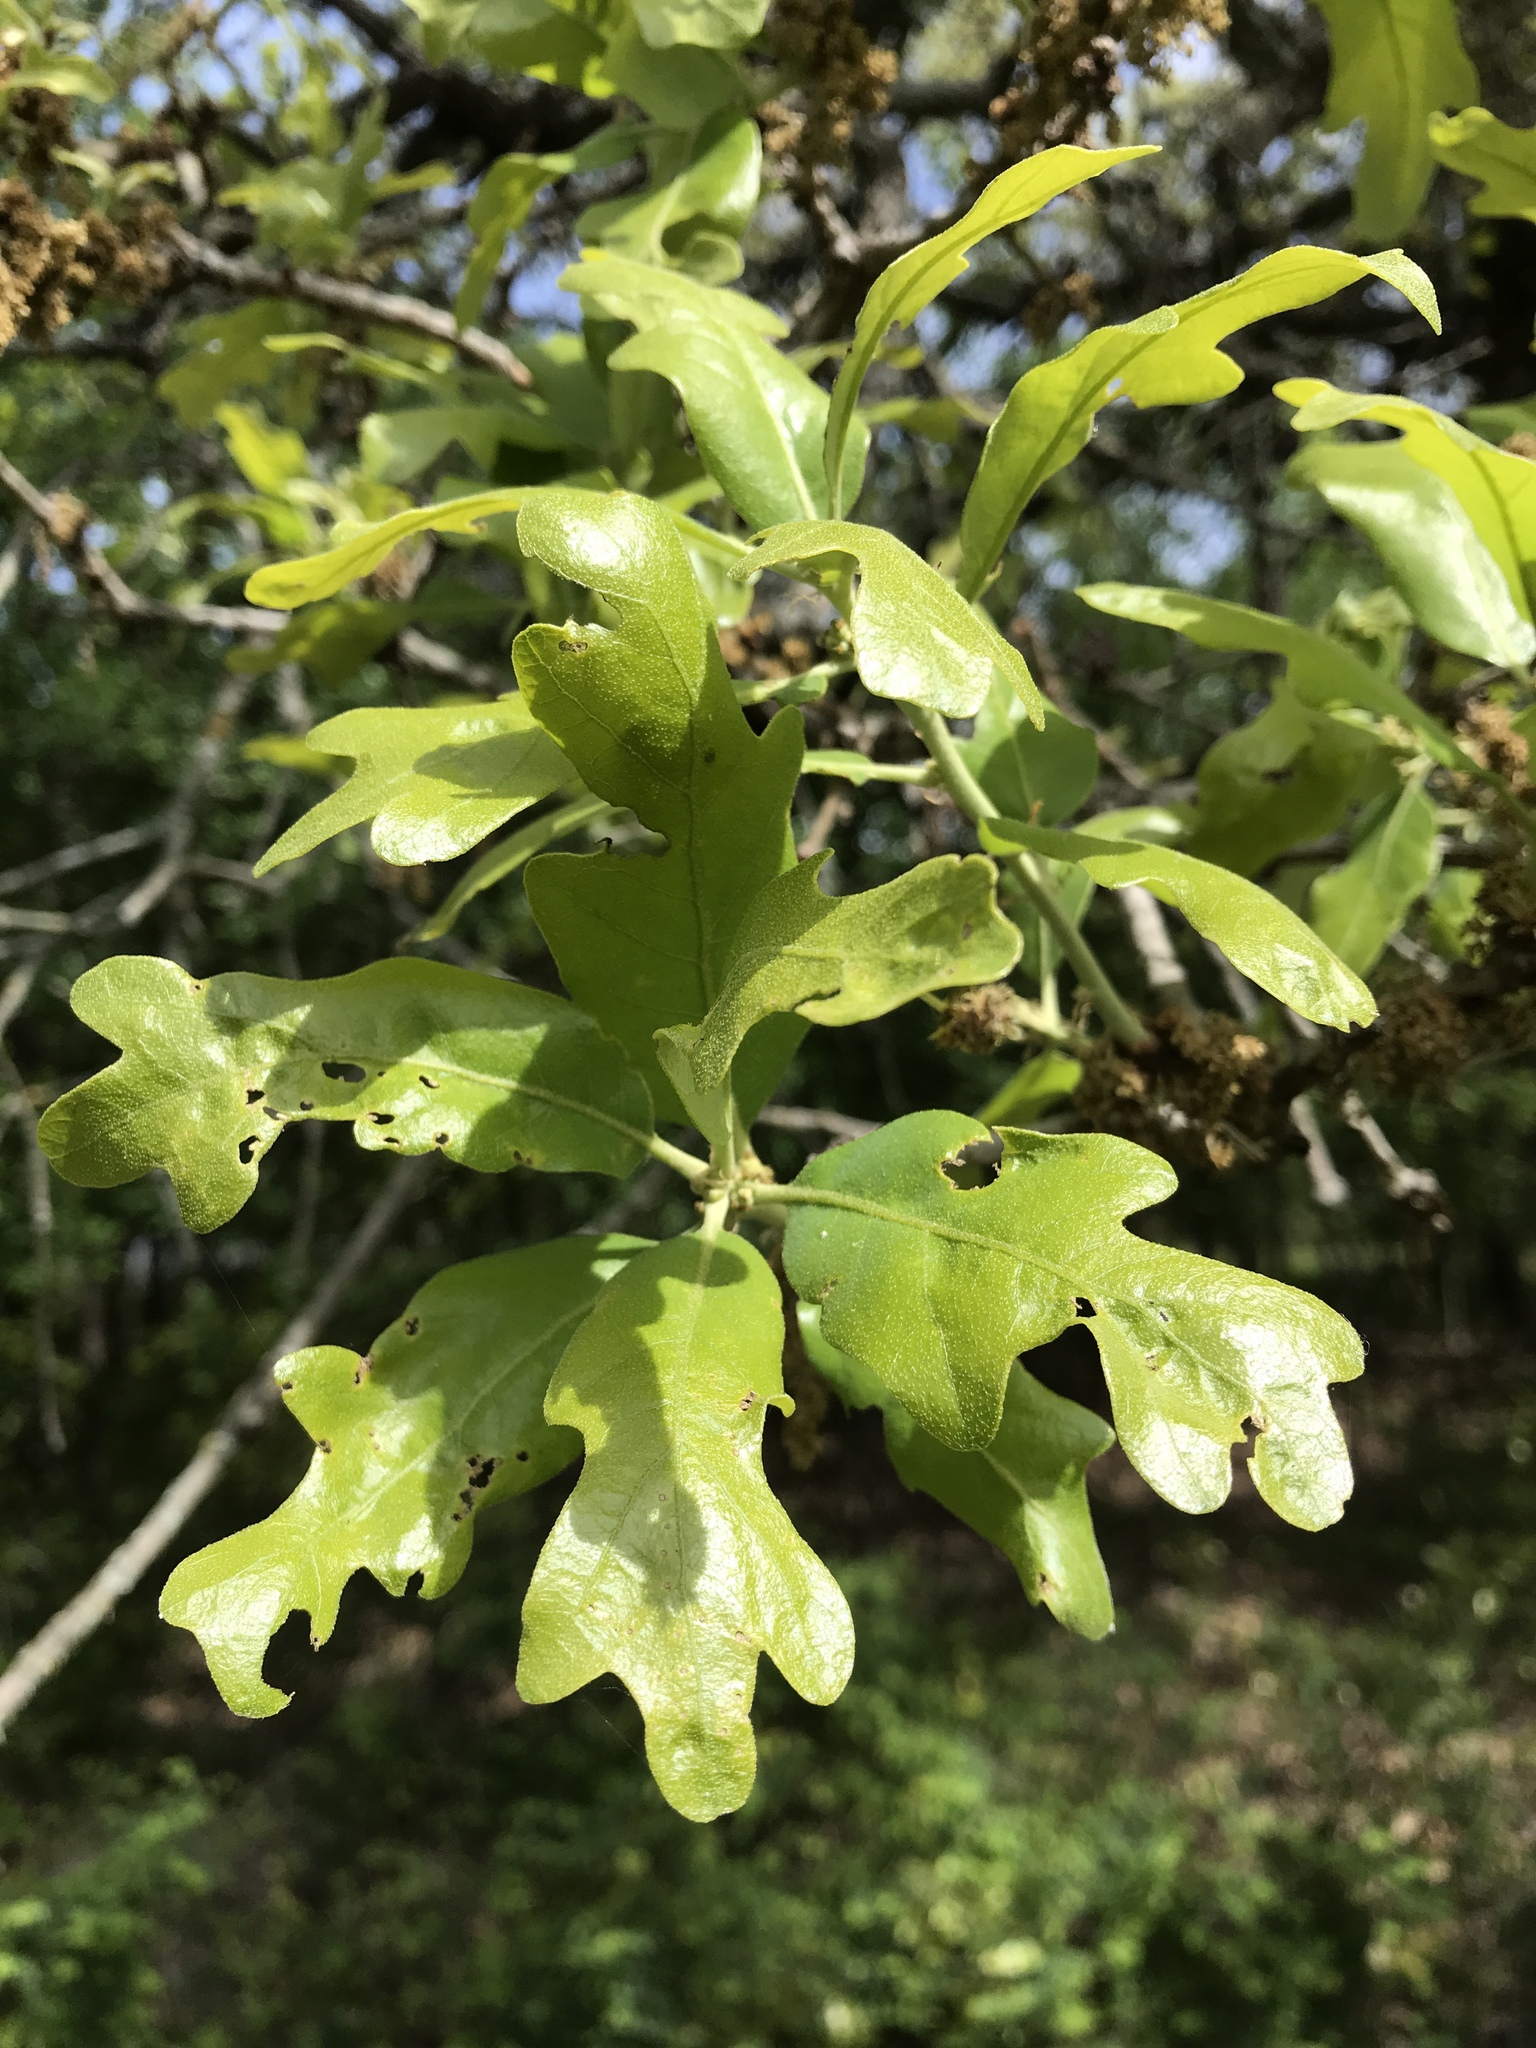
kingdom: Plantae
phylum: Tracheophyta
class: Magnoliopsida
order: Fagales
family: Fagaceae
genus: Quercus
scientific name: Quercus stellata
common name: Post oak
